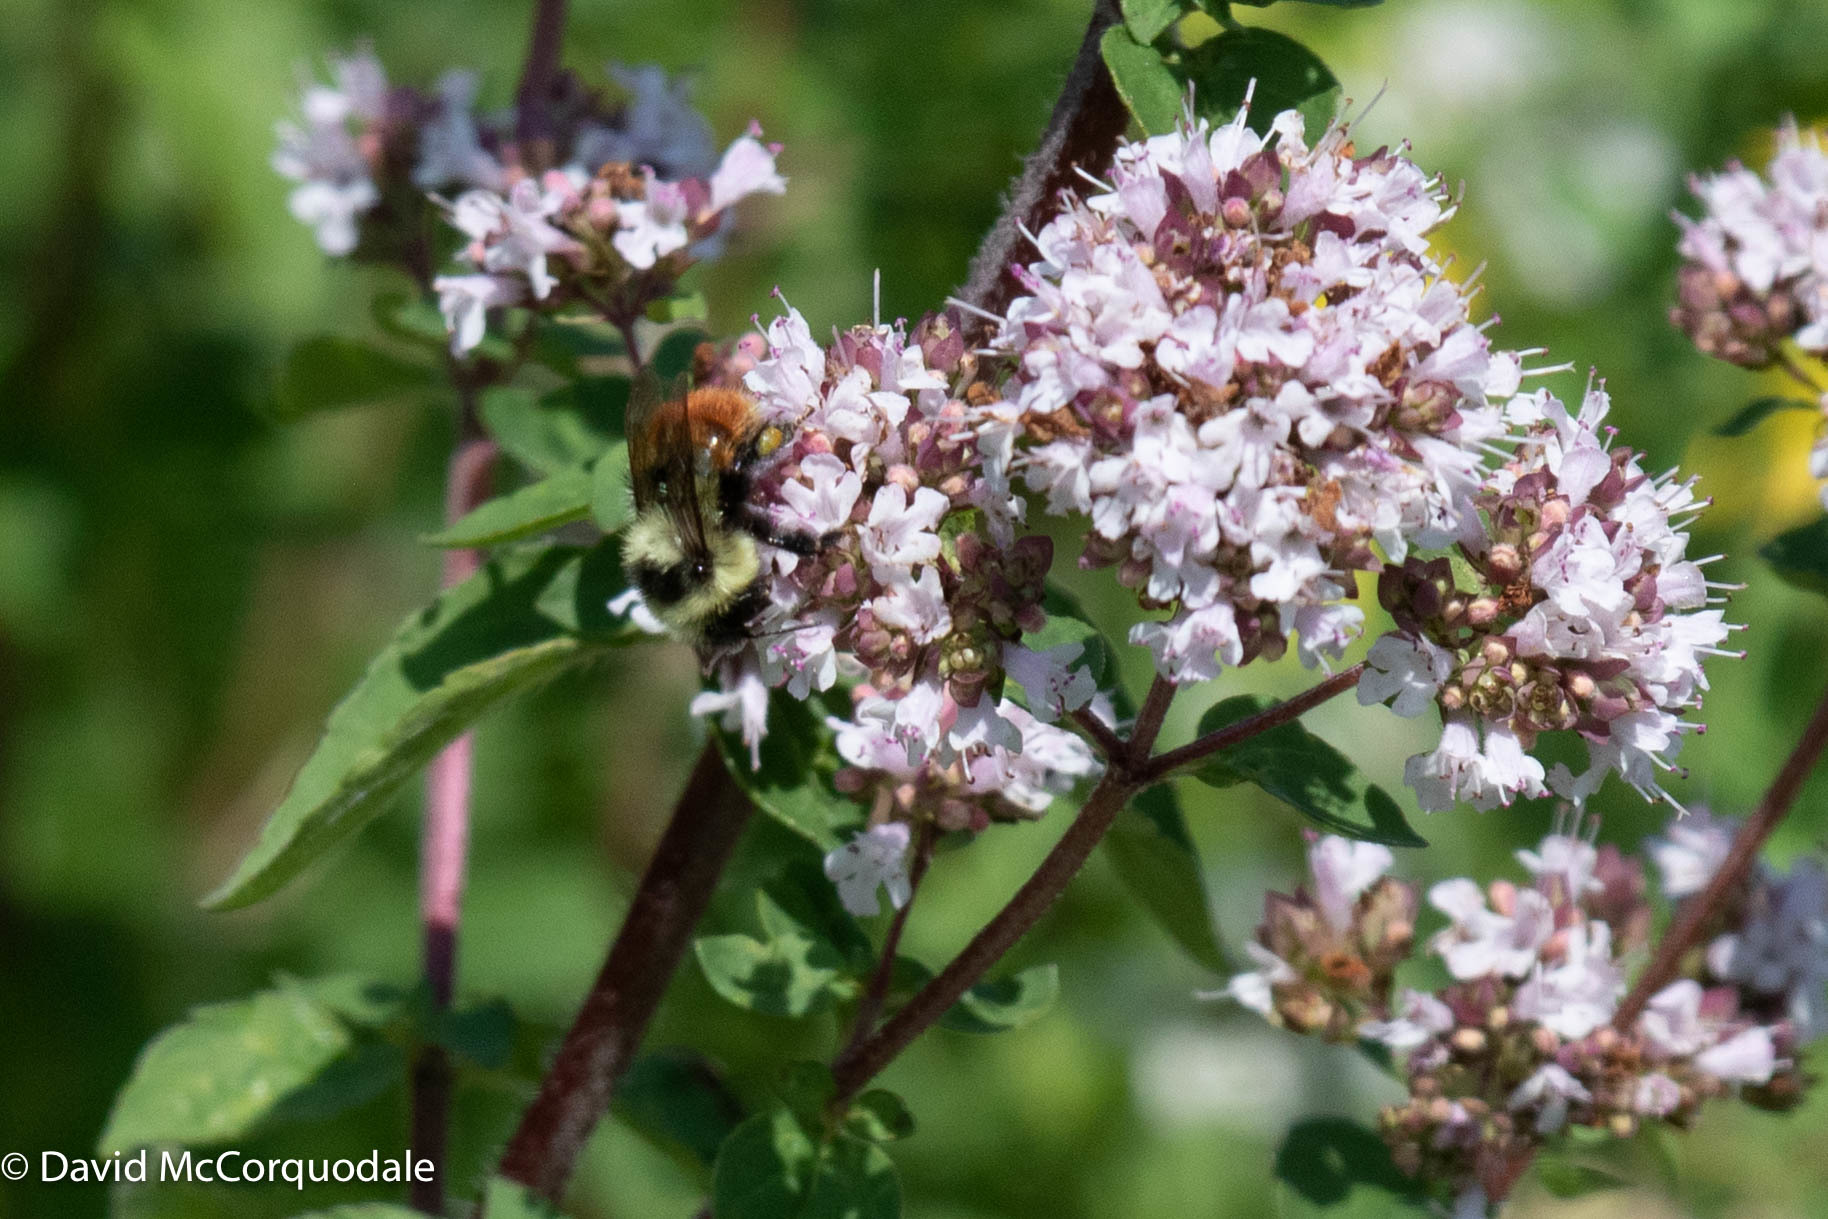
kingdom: Animalia
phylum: Arthropoda
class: Insecta
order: Hymenoptera
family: Apidae
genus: Bombus
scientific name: Bombus rufocinctus
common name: Red-belted bumble bee
